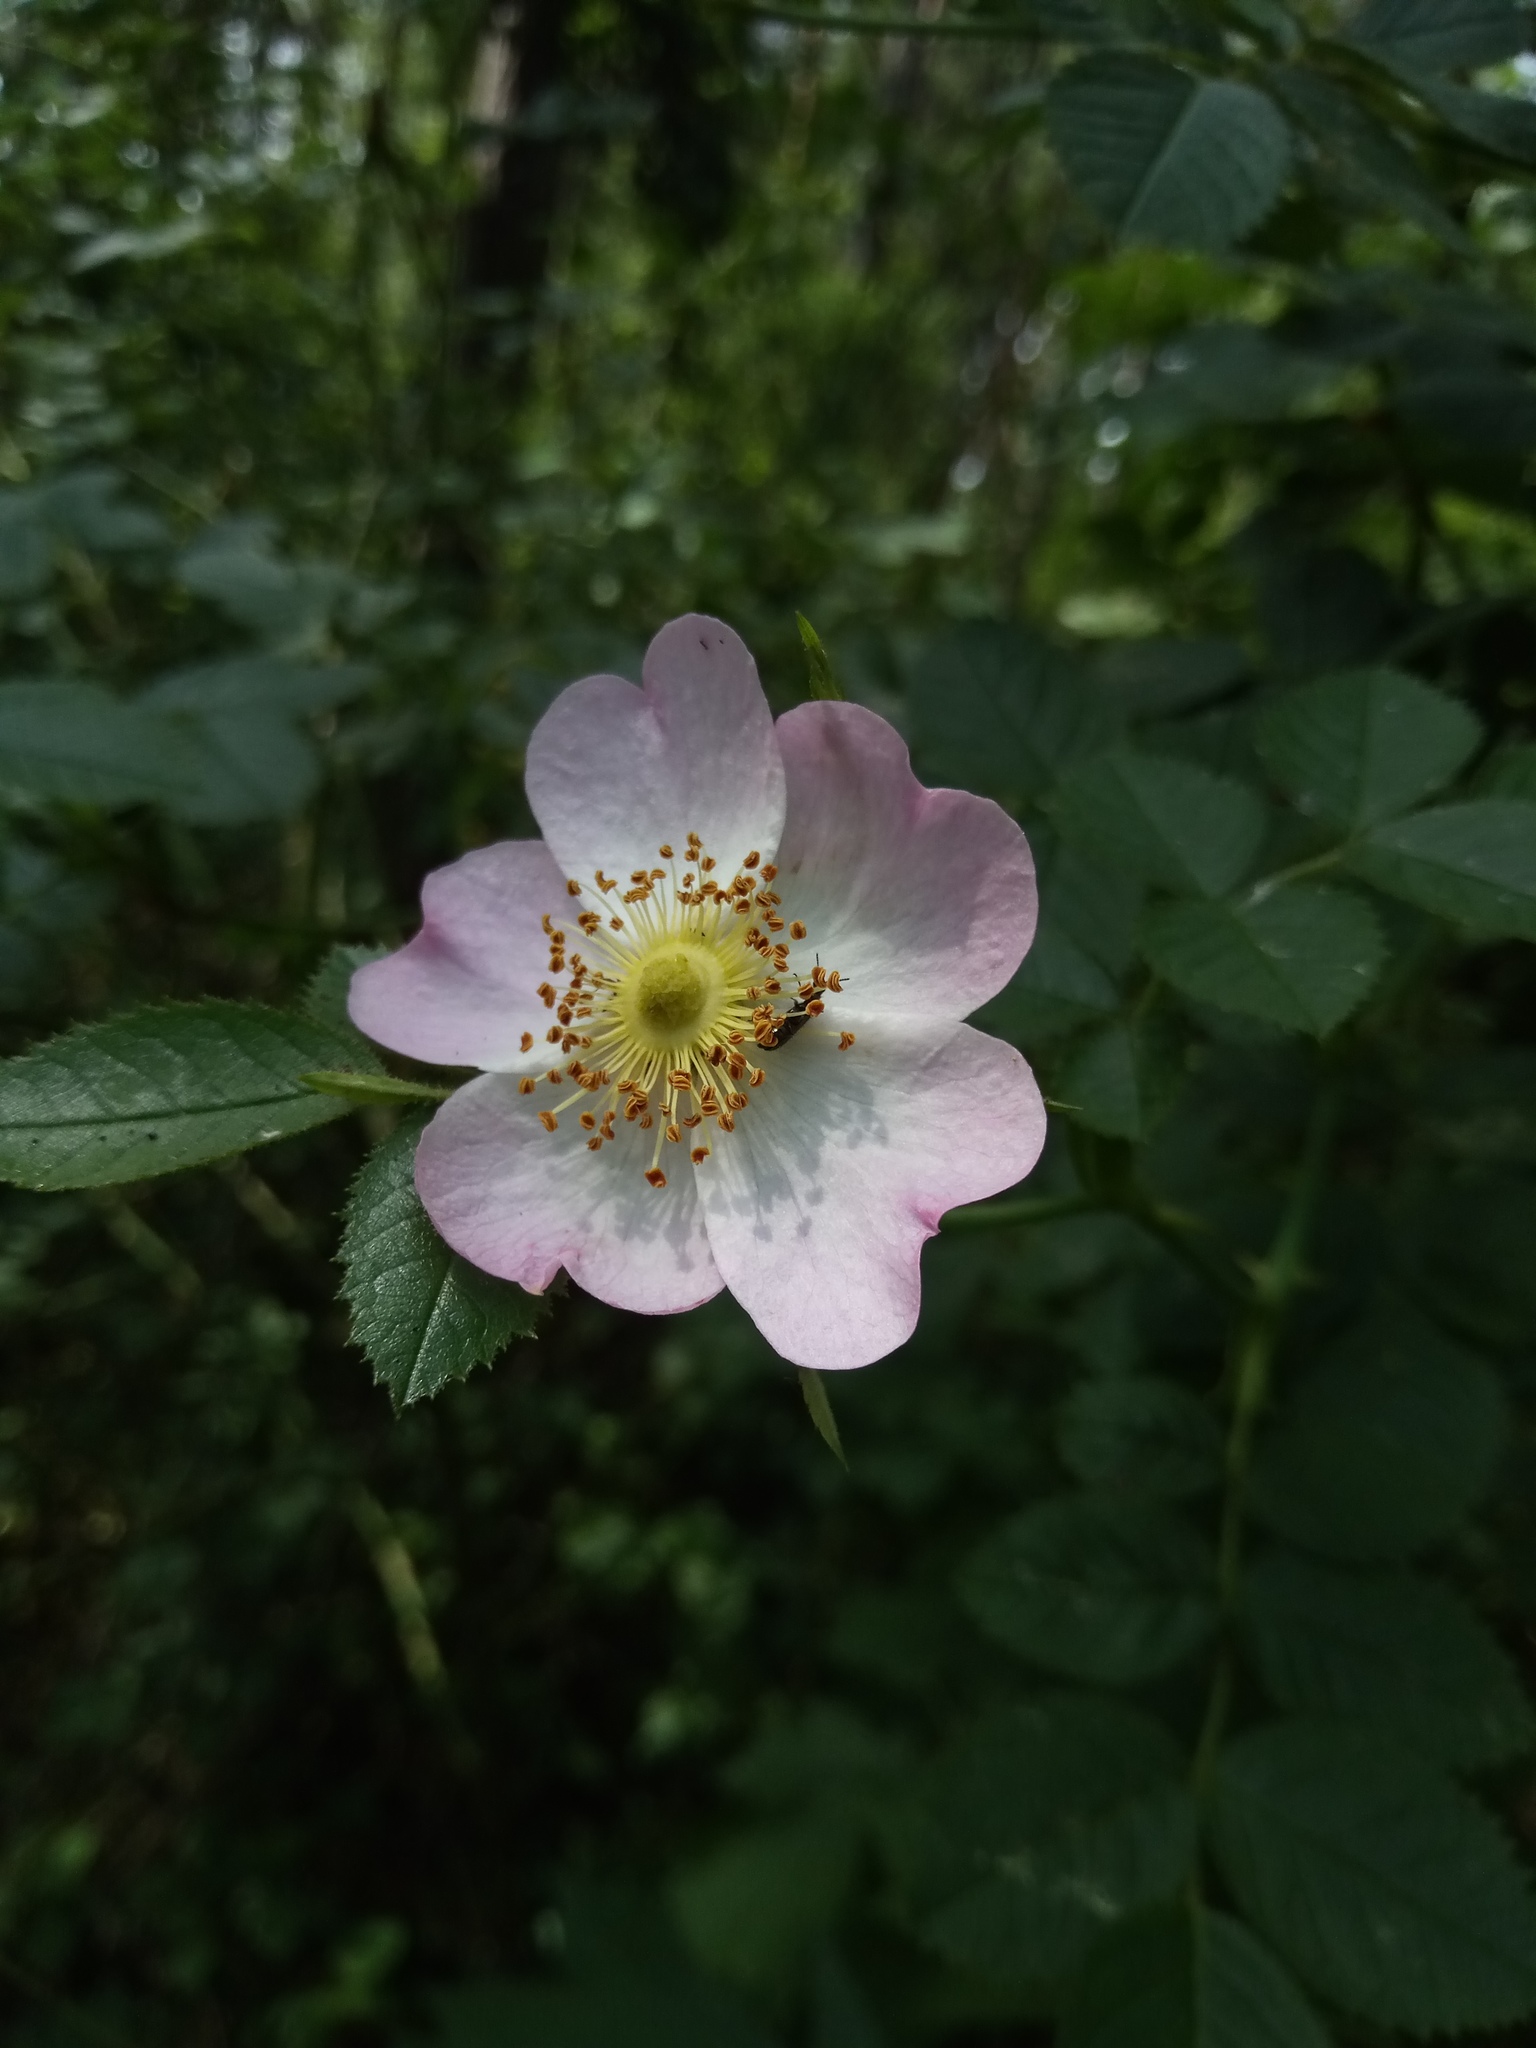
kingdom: Plantae
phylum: Tracheophyta
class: Magnoliopsida
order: Rosales
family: Rosaceae
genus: Rosa
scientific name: Rosa rubiginosa
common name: Sweet-briar
